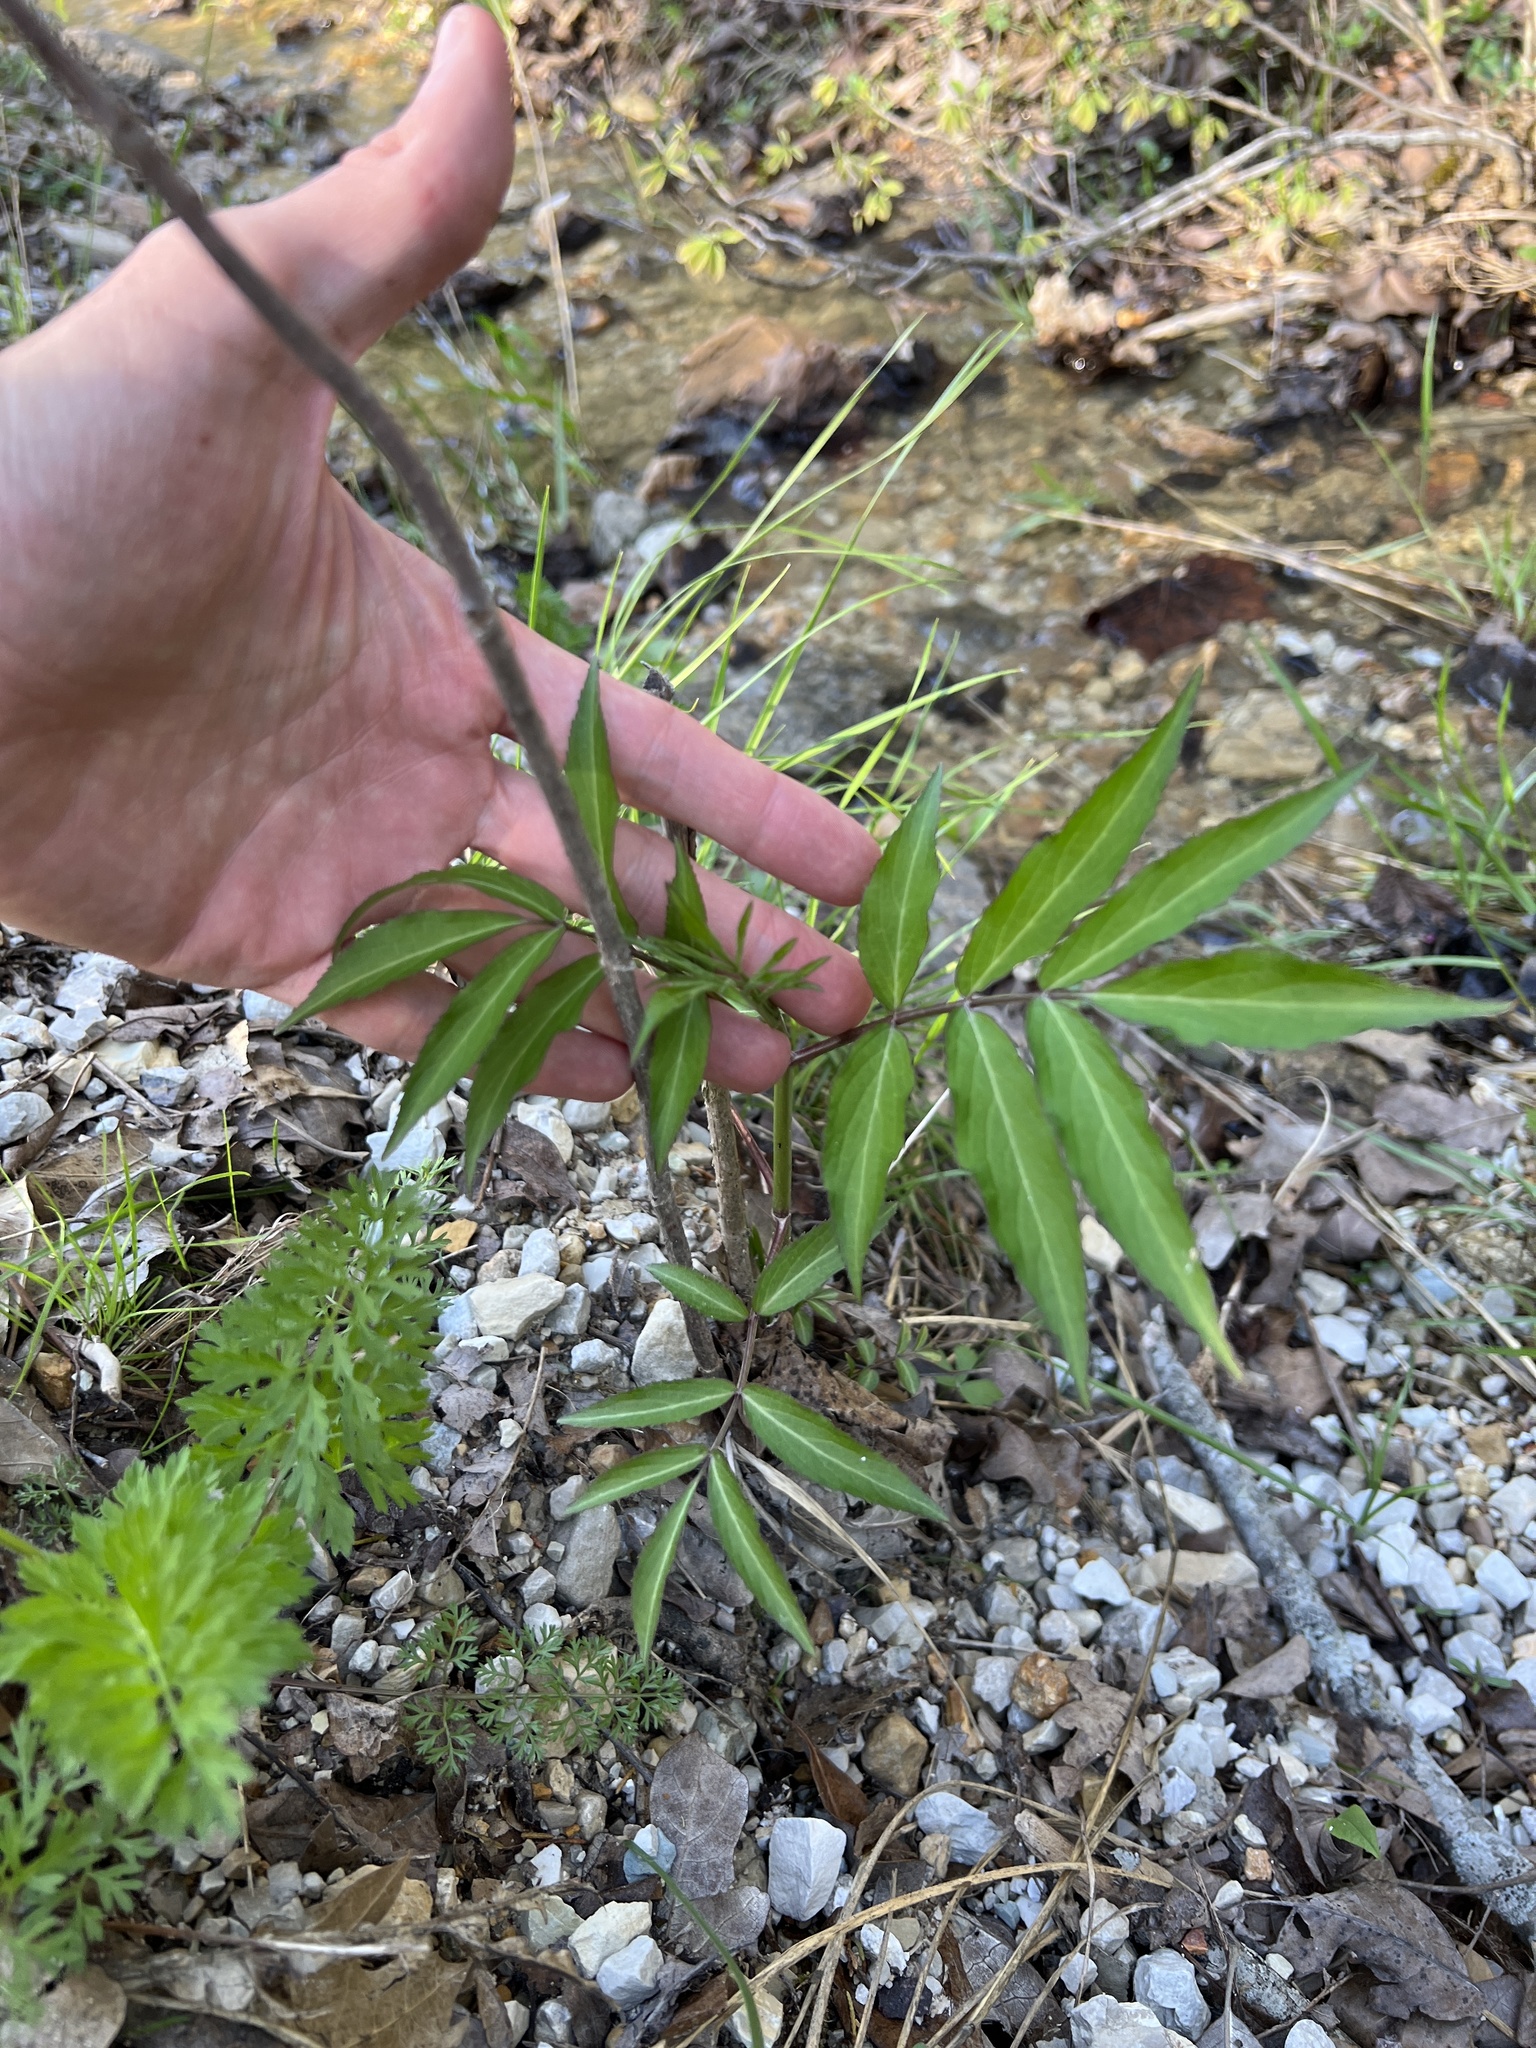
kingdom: Plantae
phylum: Tracheophyta
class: Magnoliopsida
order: Dipsacales
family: Viburnaceae
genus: Sambucus
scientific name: Sambucus canadensis
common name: American elder
